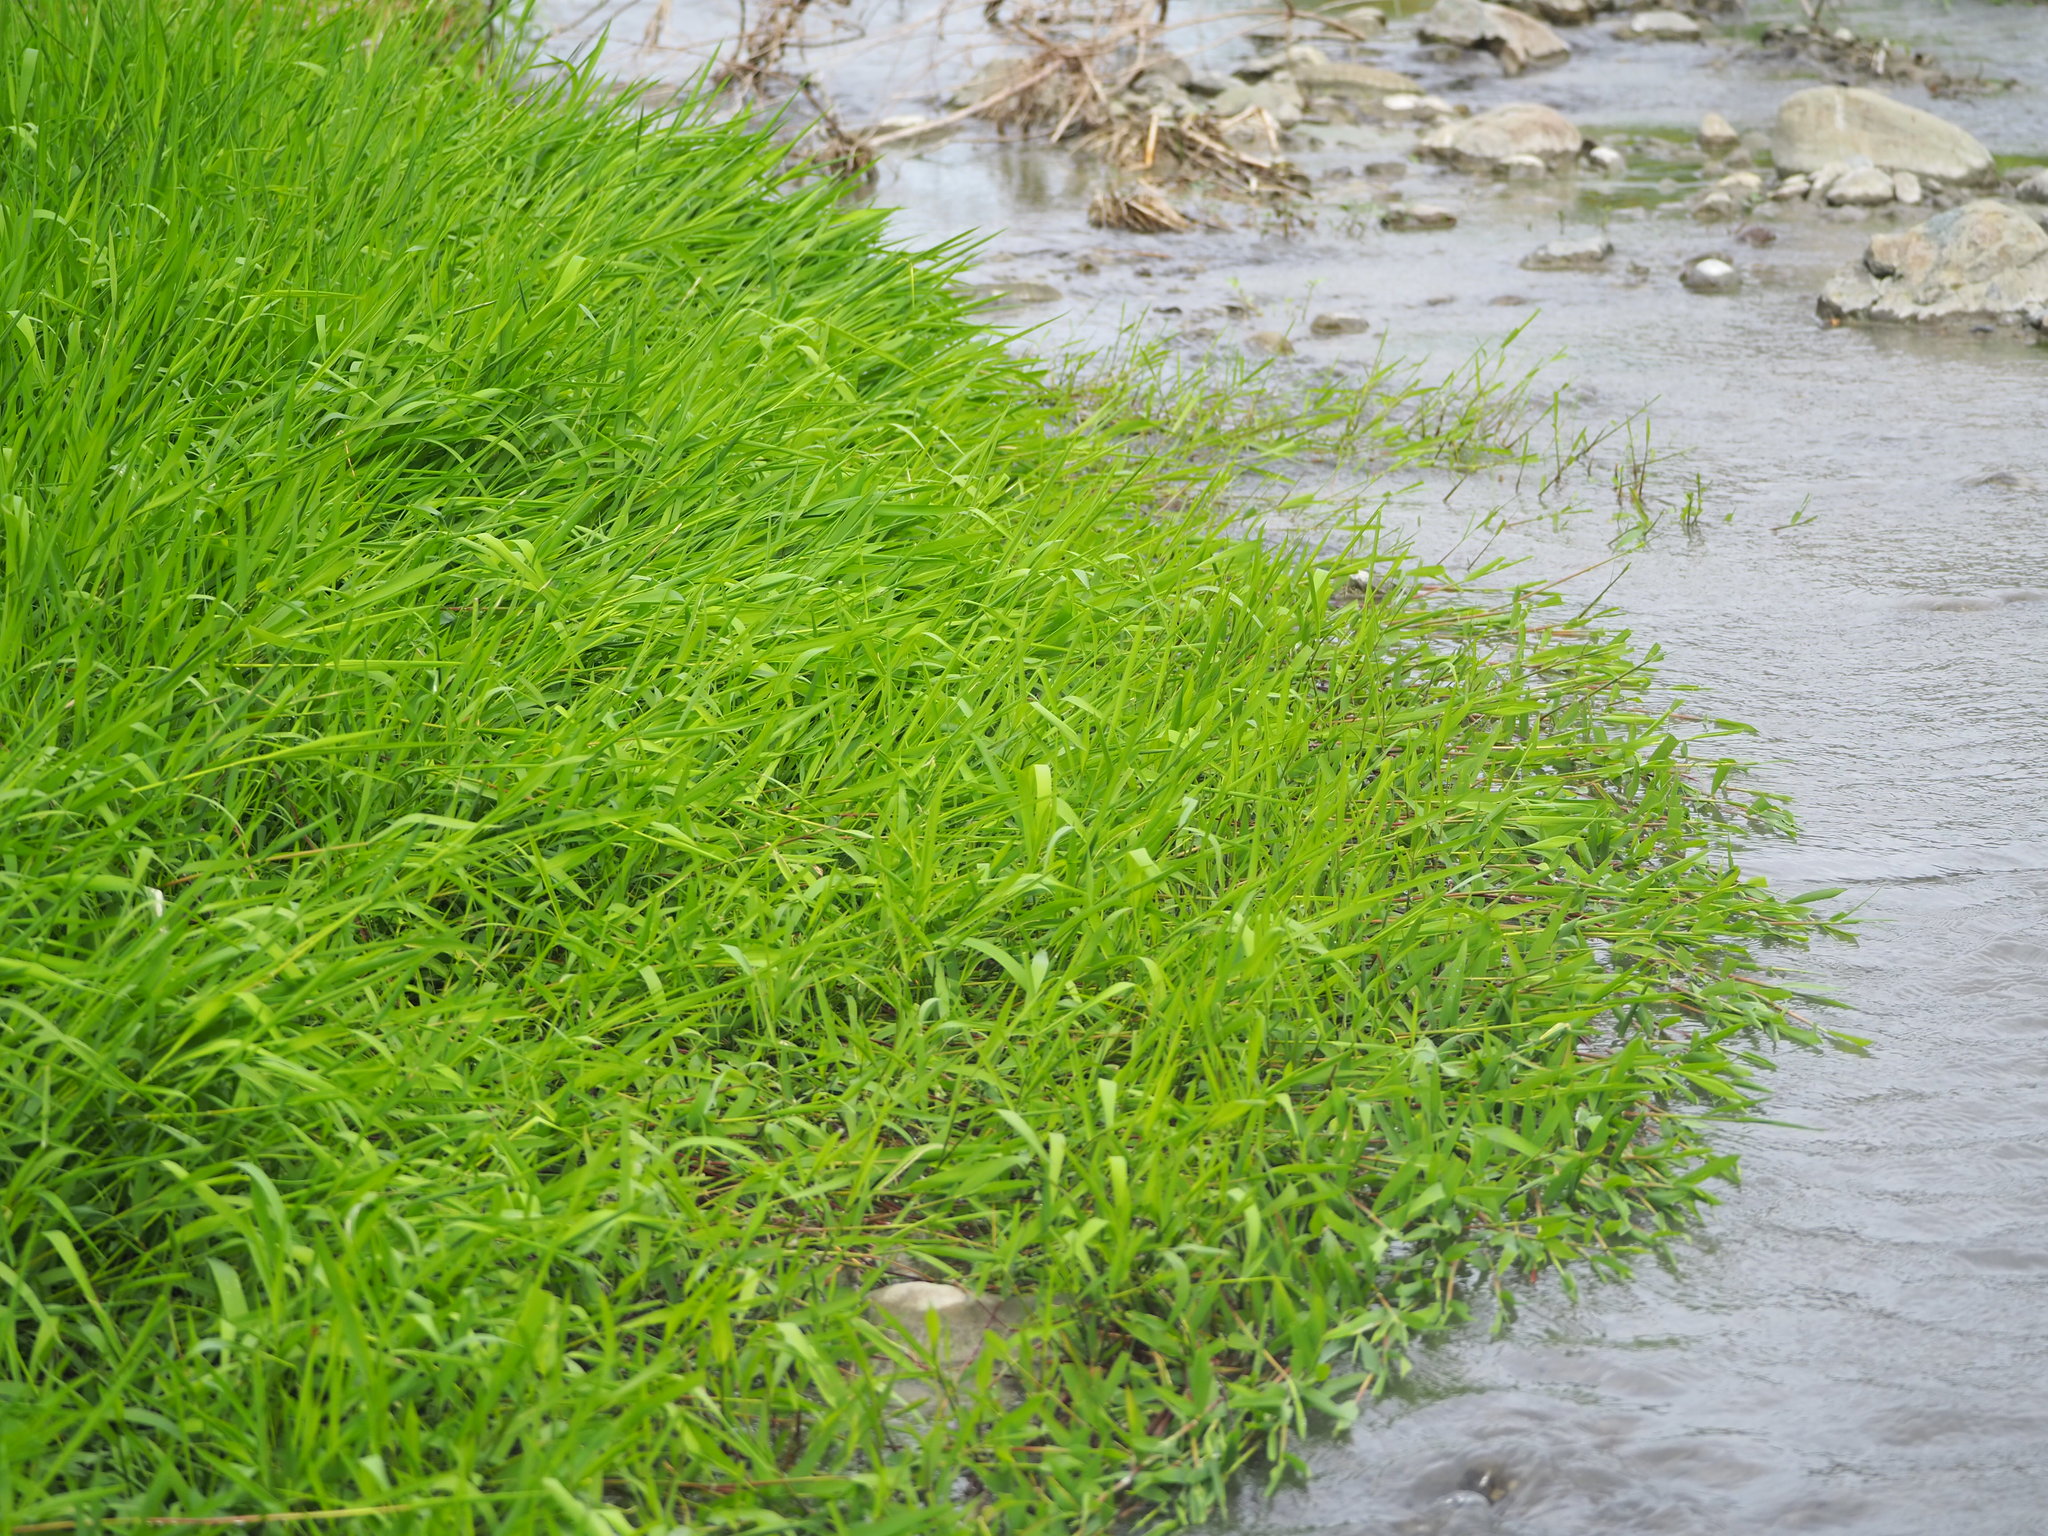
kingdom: Plantae
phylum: Tracheophyta
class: Liliopsida
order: Poales
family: Poaceae
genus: Leersia
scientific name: Leersia hexandra
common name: Southern cut grass
